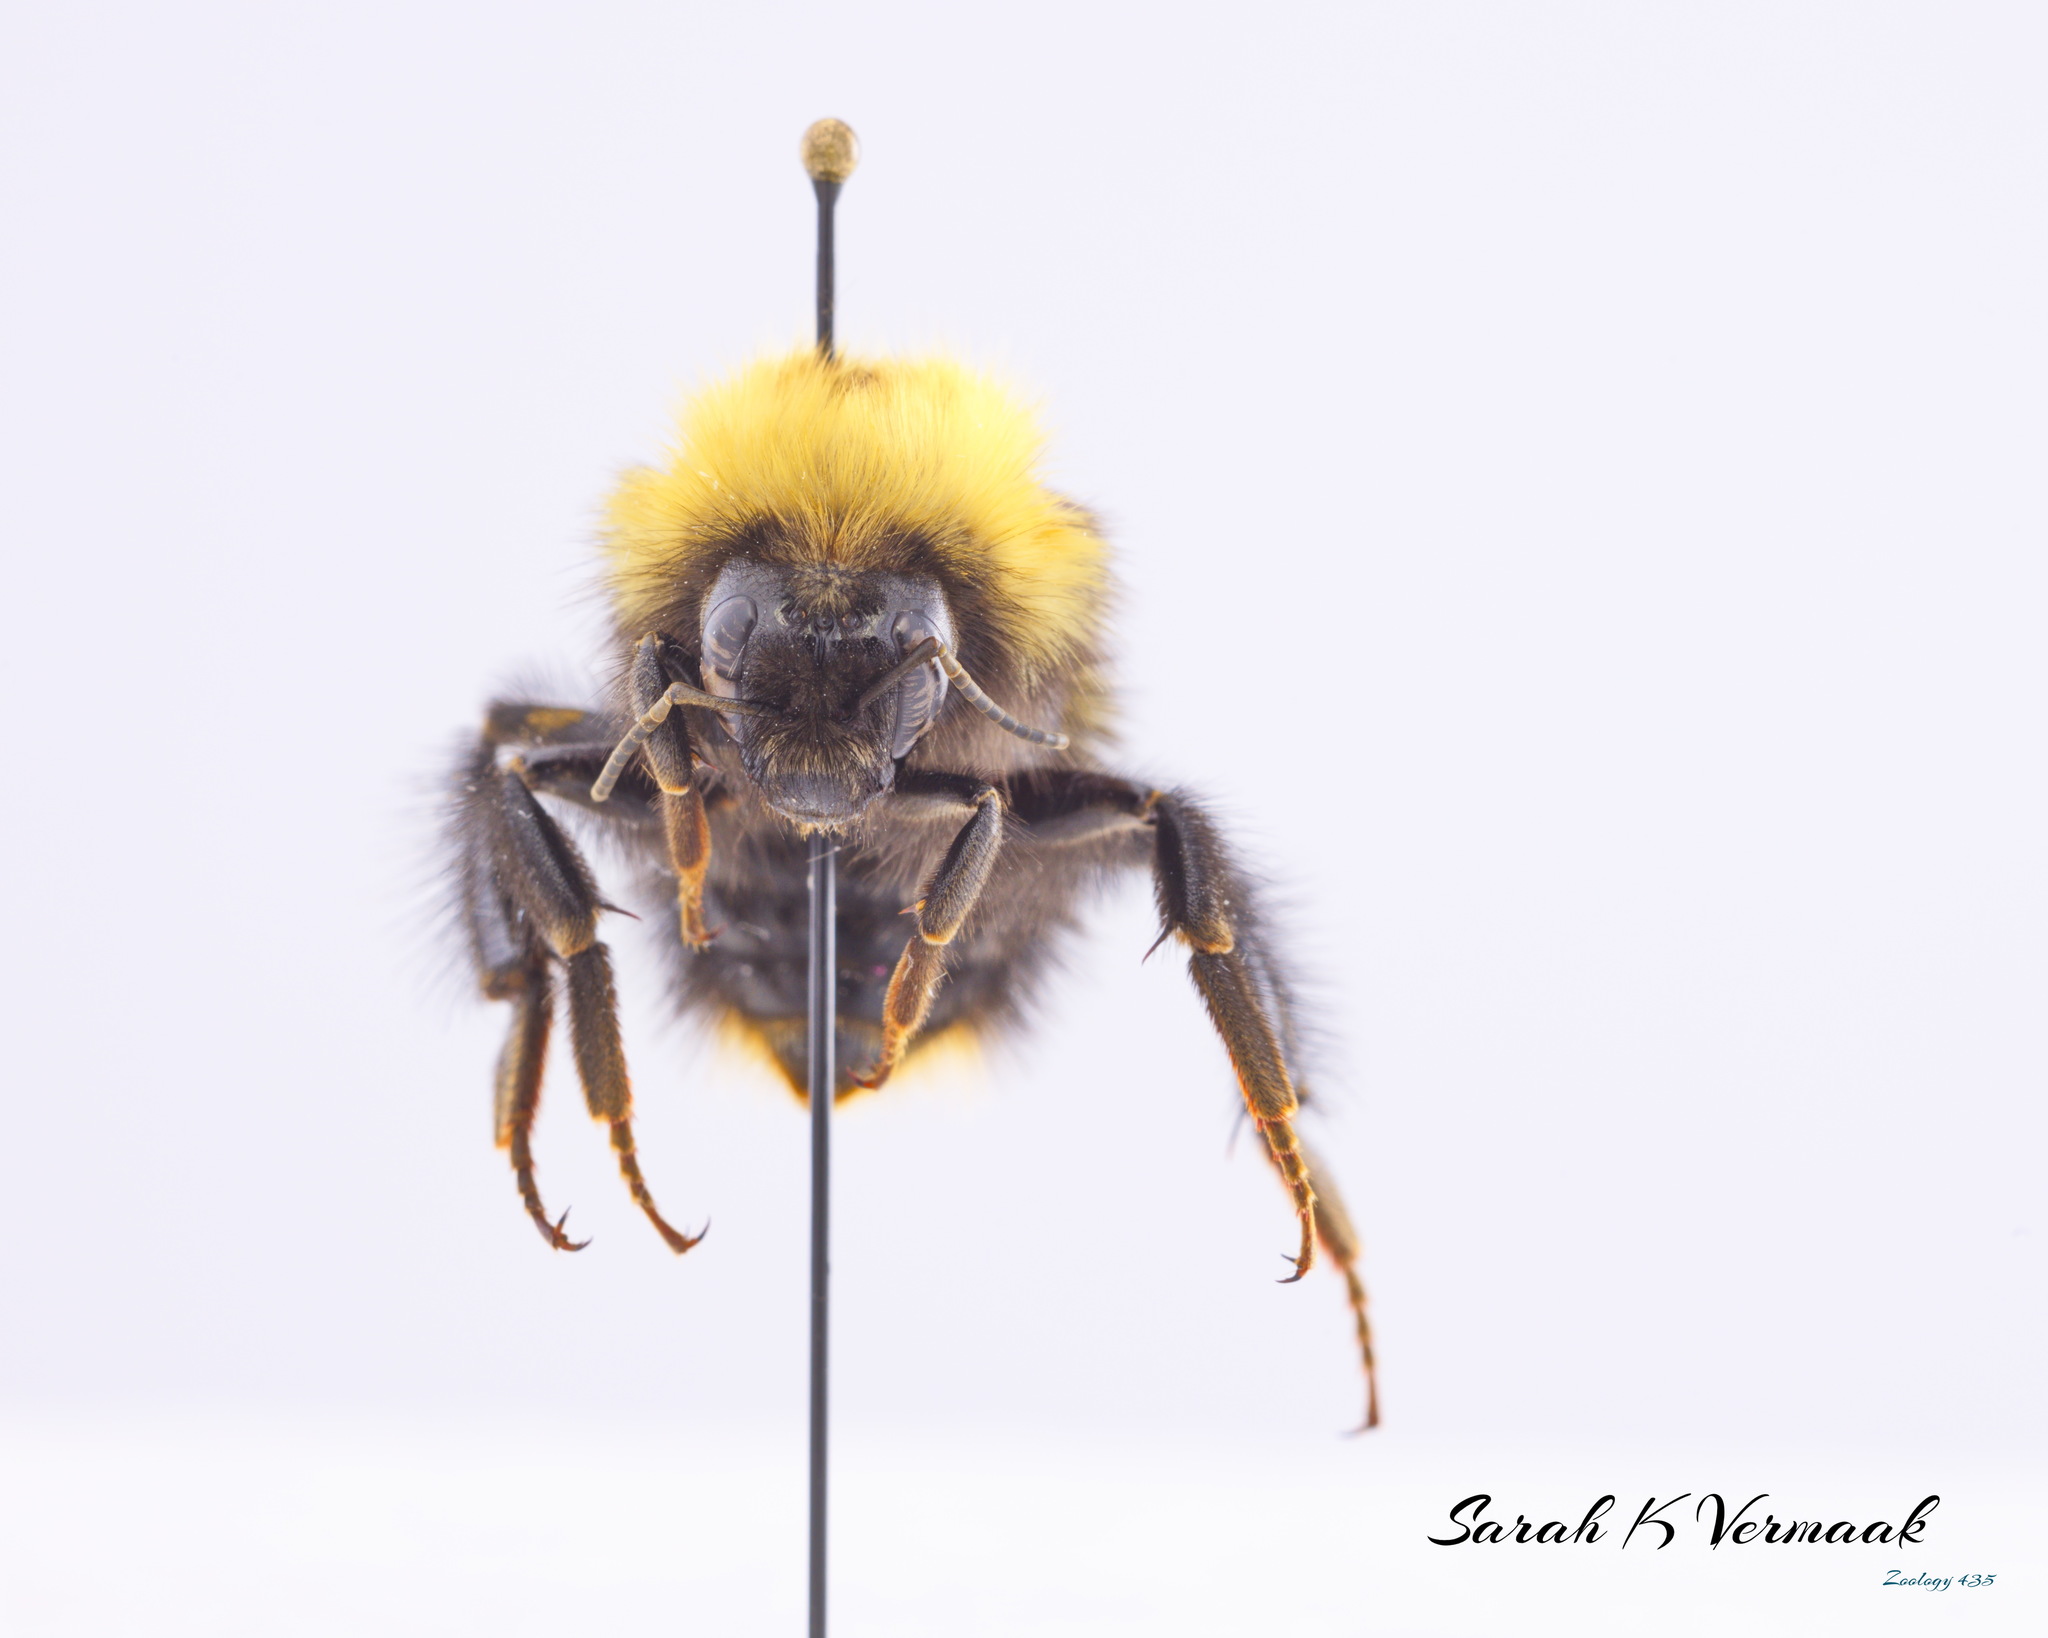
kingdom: Animalia
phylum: Arthropoda
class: Insecta
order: Hymenoptera
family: Apidae
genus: Bombus
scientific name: Bombus perplexus
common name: Confusing bumble bee
